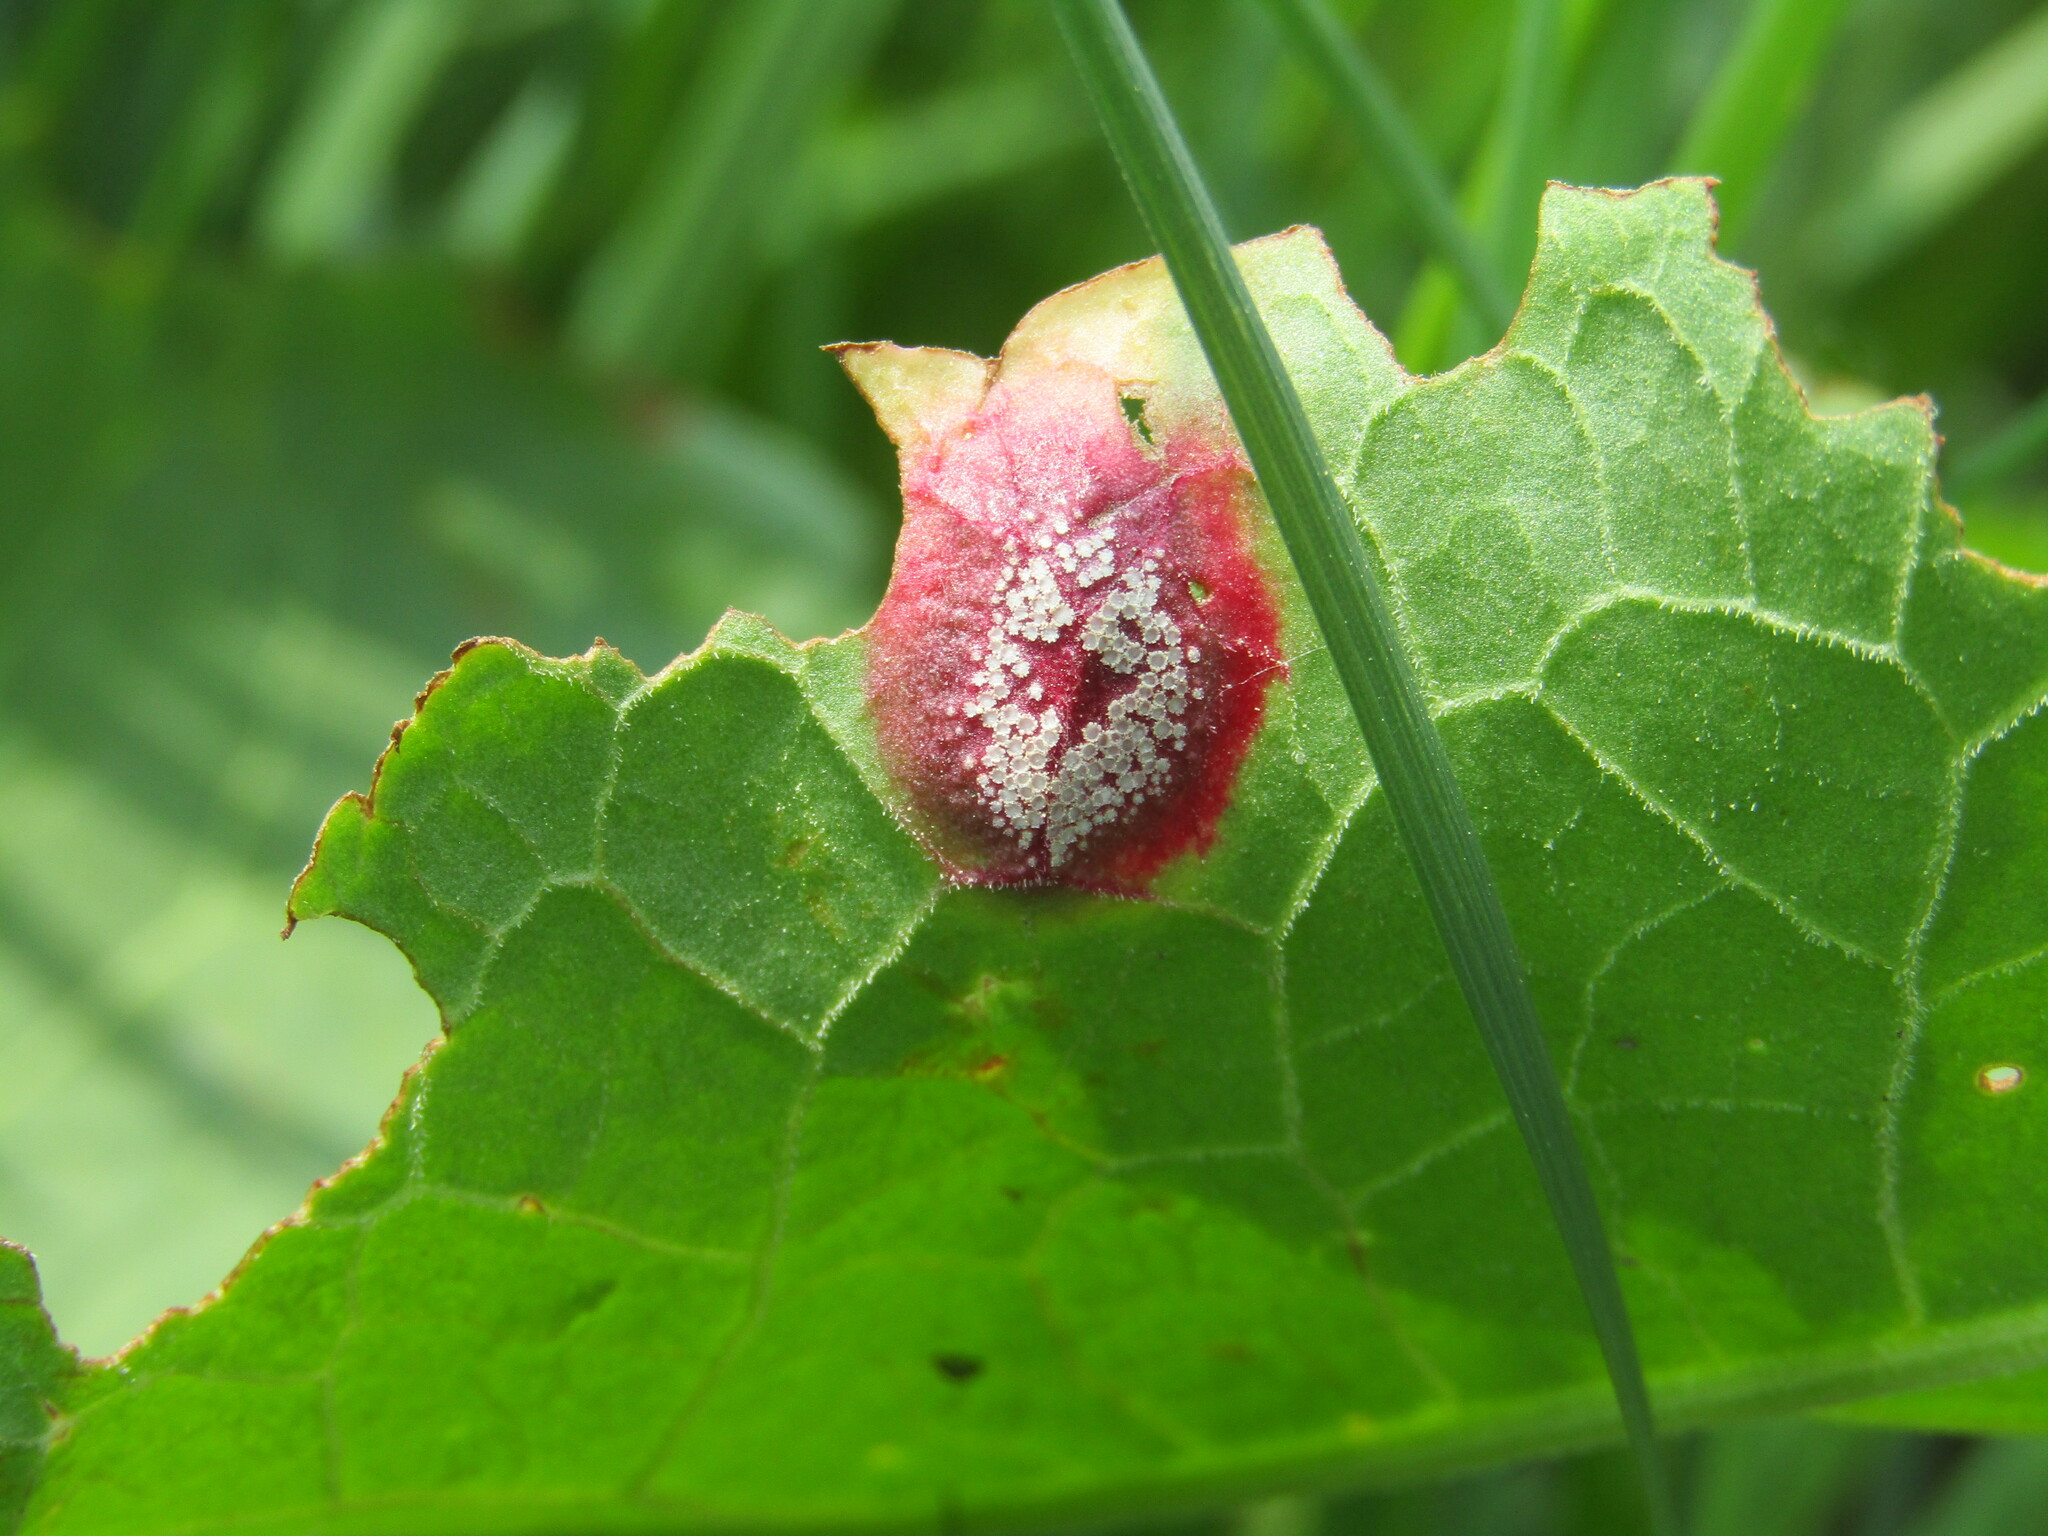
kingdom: Fungi
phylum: Basidiomycota
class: Pucciniomycetes
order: Pucciniales
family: Pucciniaceae
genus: Puccinia
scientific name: Puccinia phragmitis
